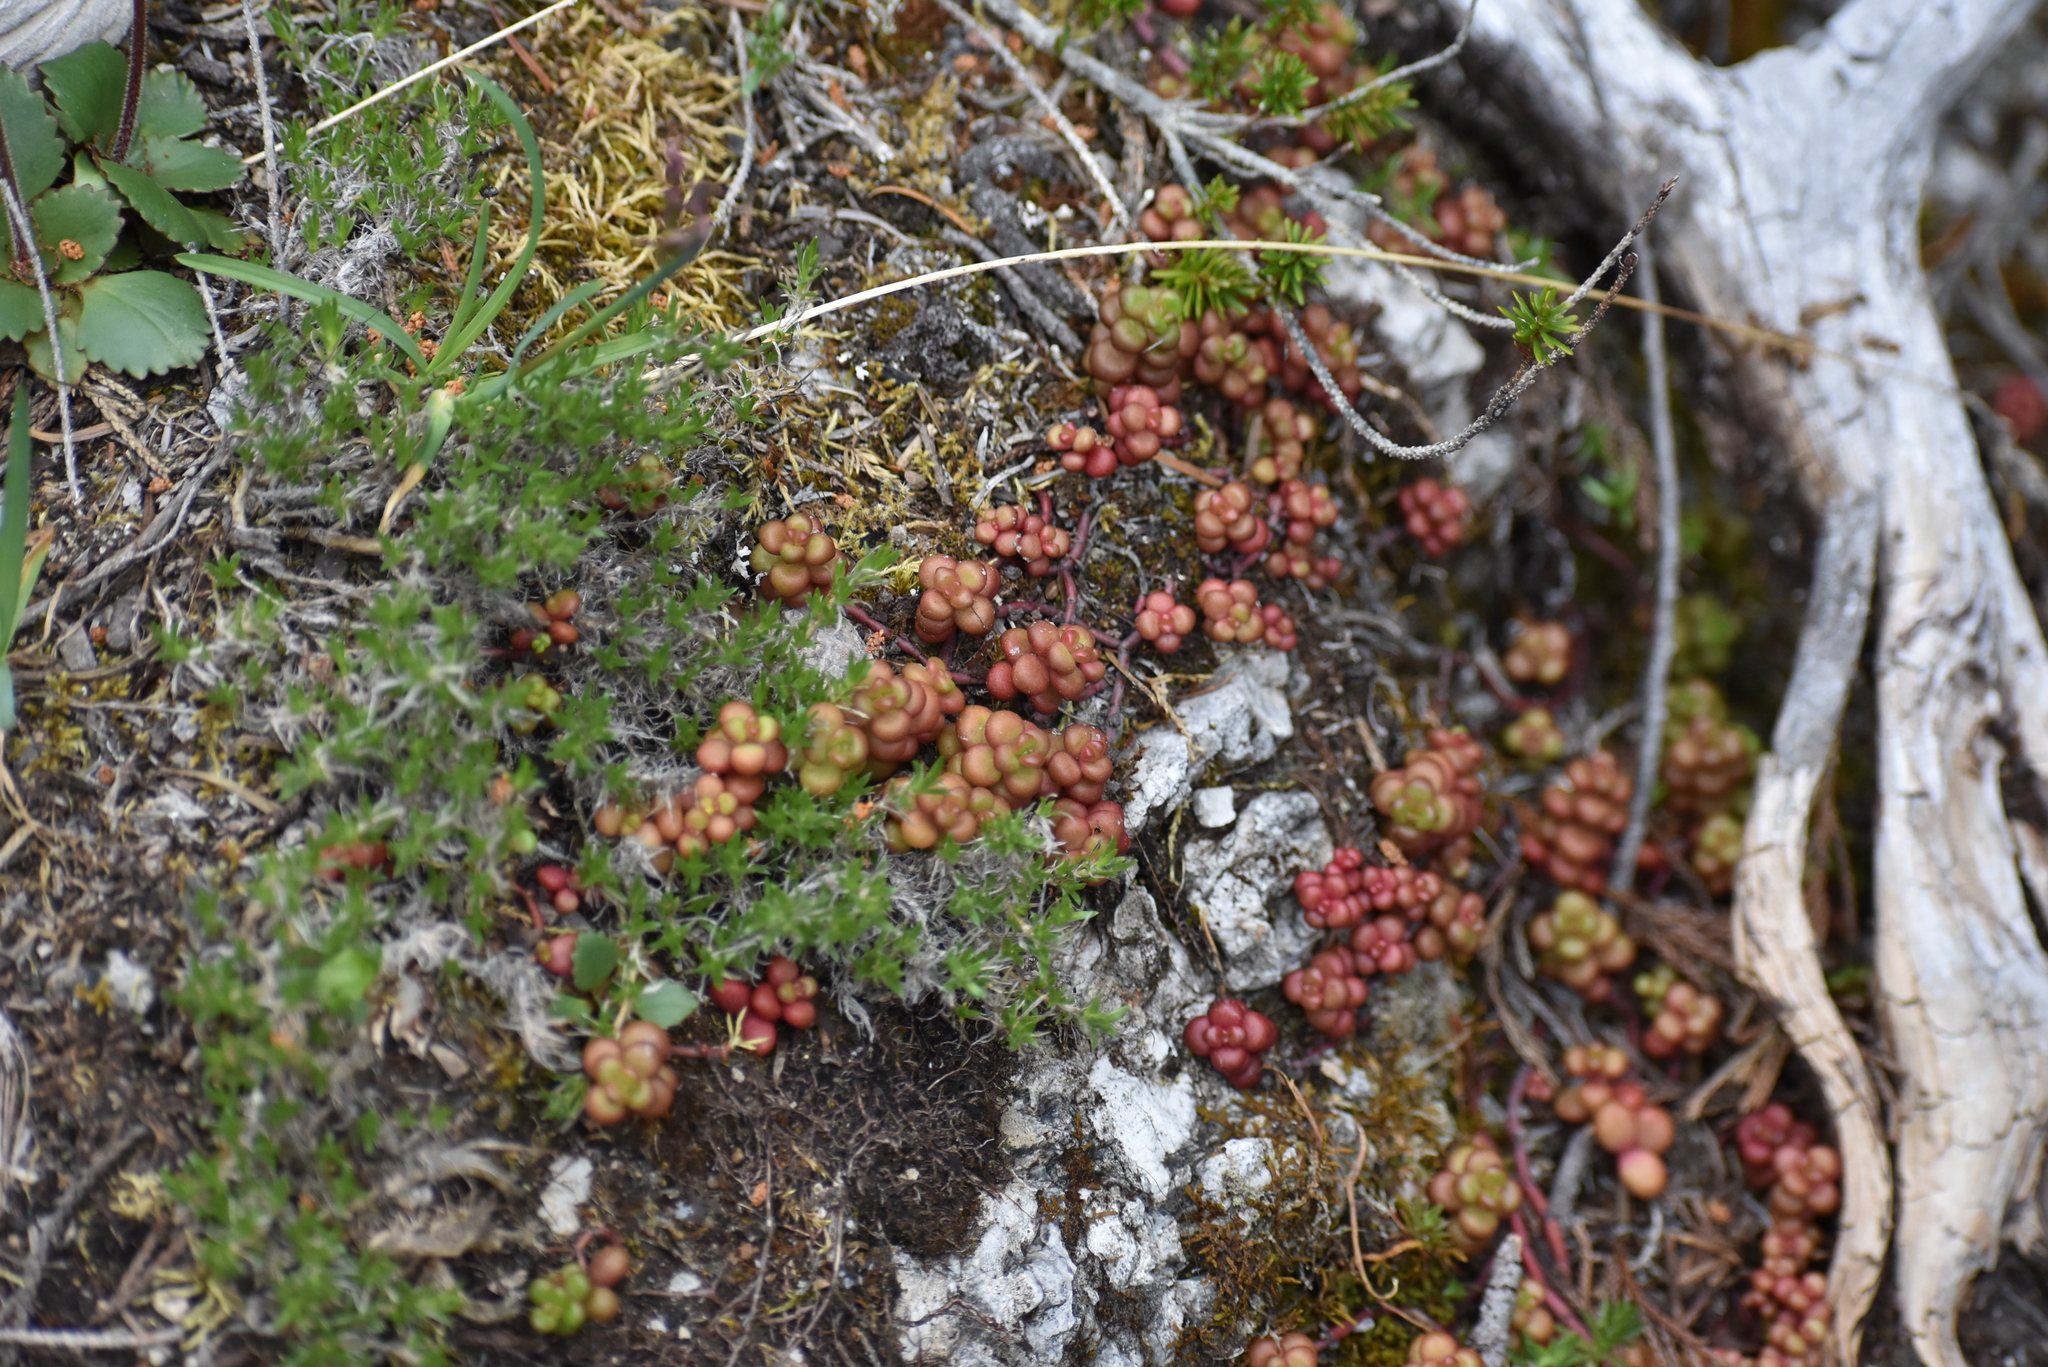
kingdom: Plantae
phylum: Tracheophyta
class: Magnoliopsida
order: Saxifragales
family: Crassulaceae
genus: Sedum
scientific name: Sedum divergens
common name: Cascade stonecrop
